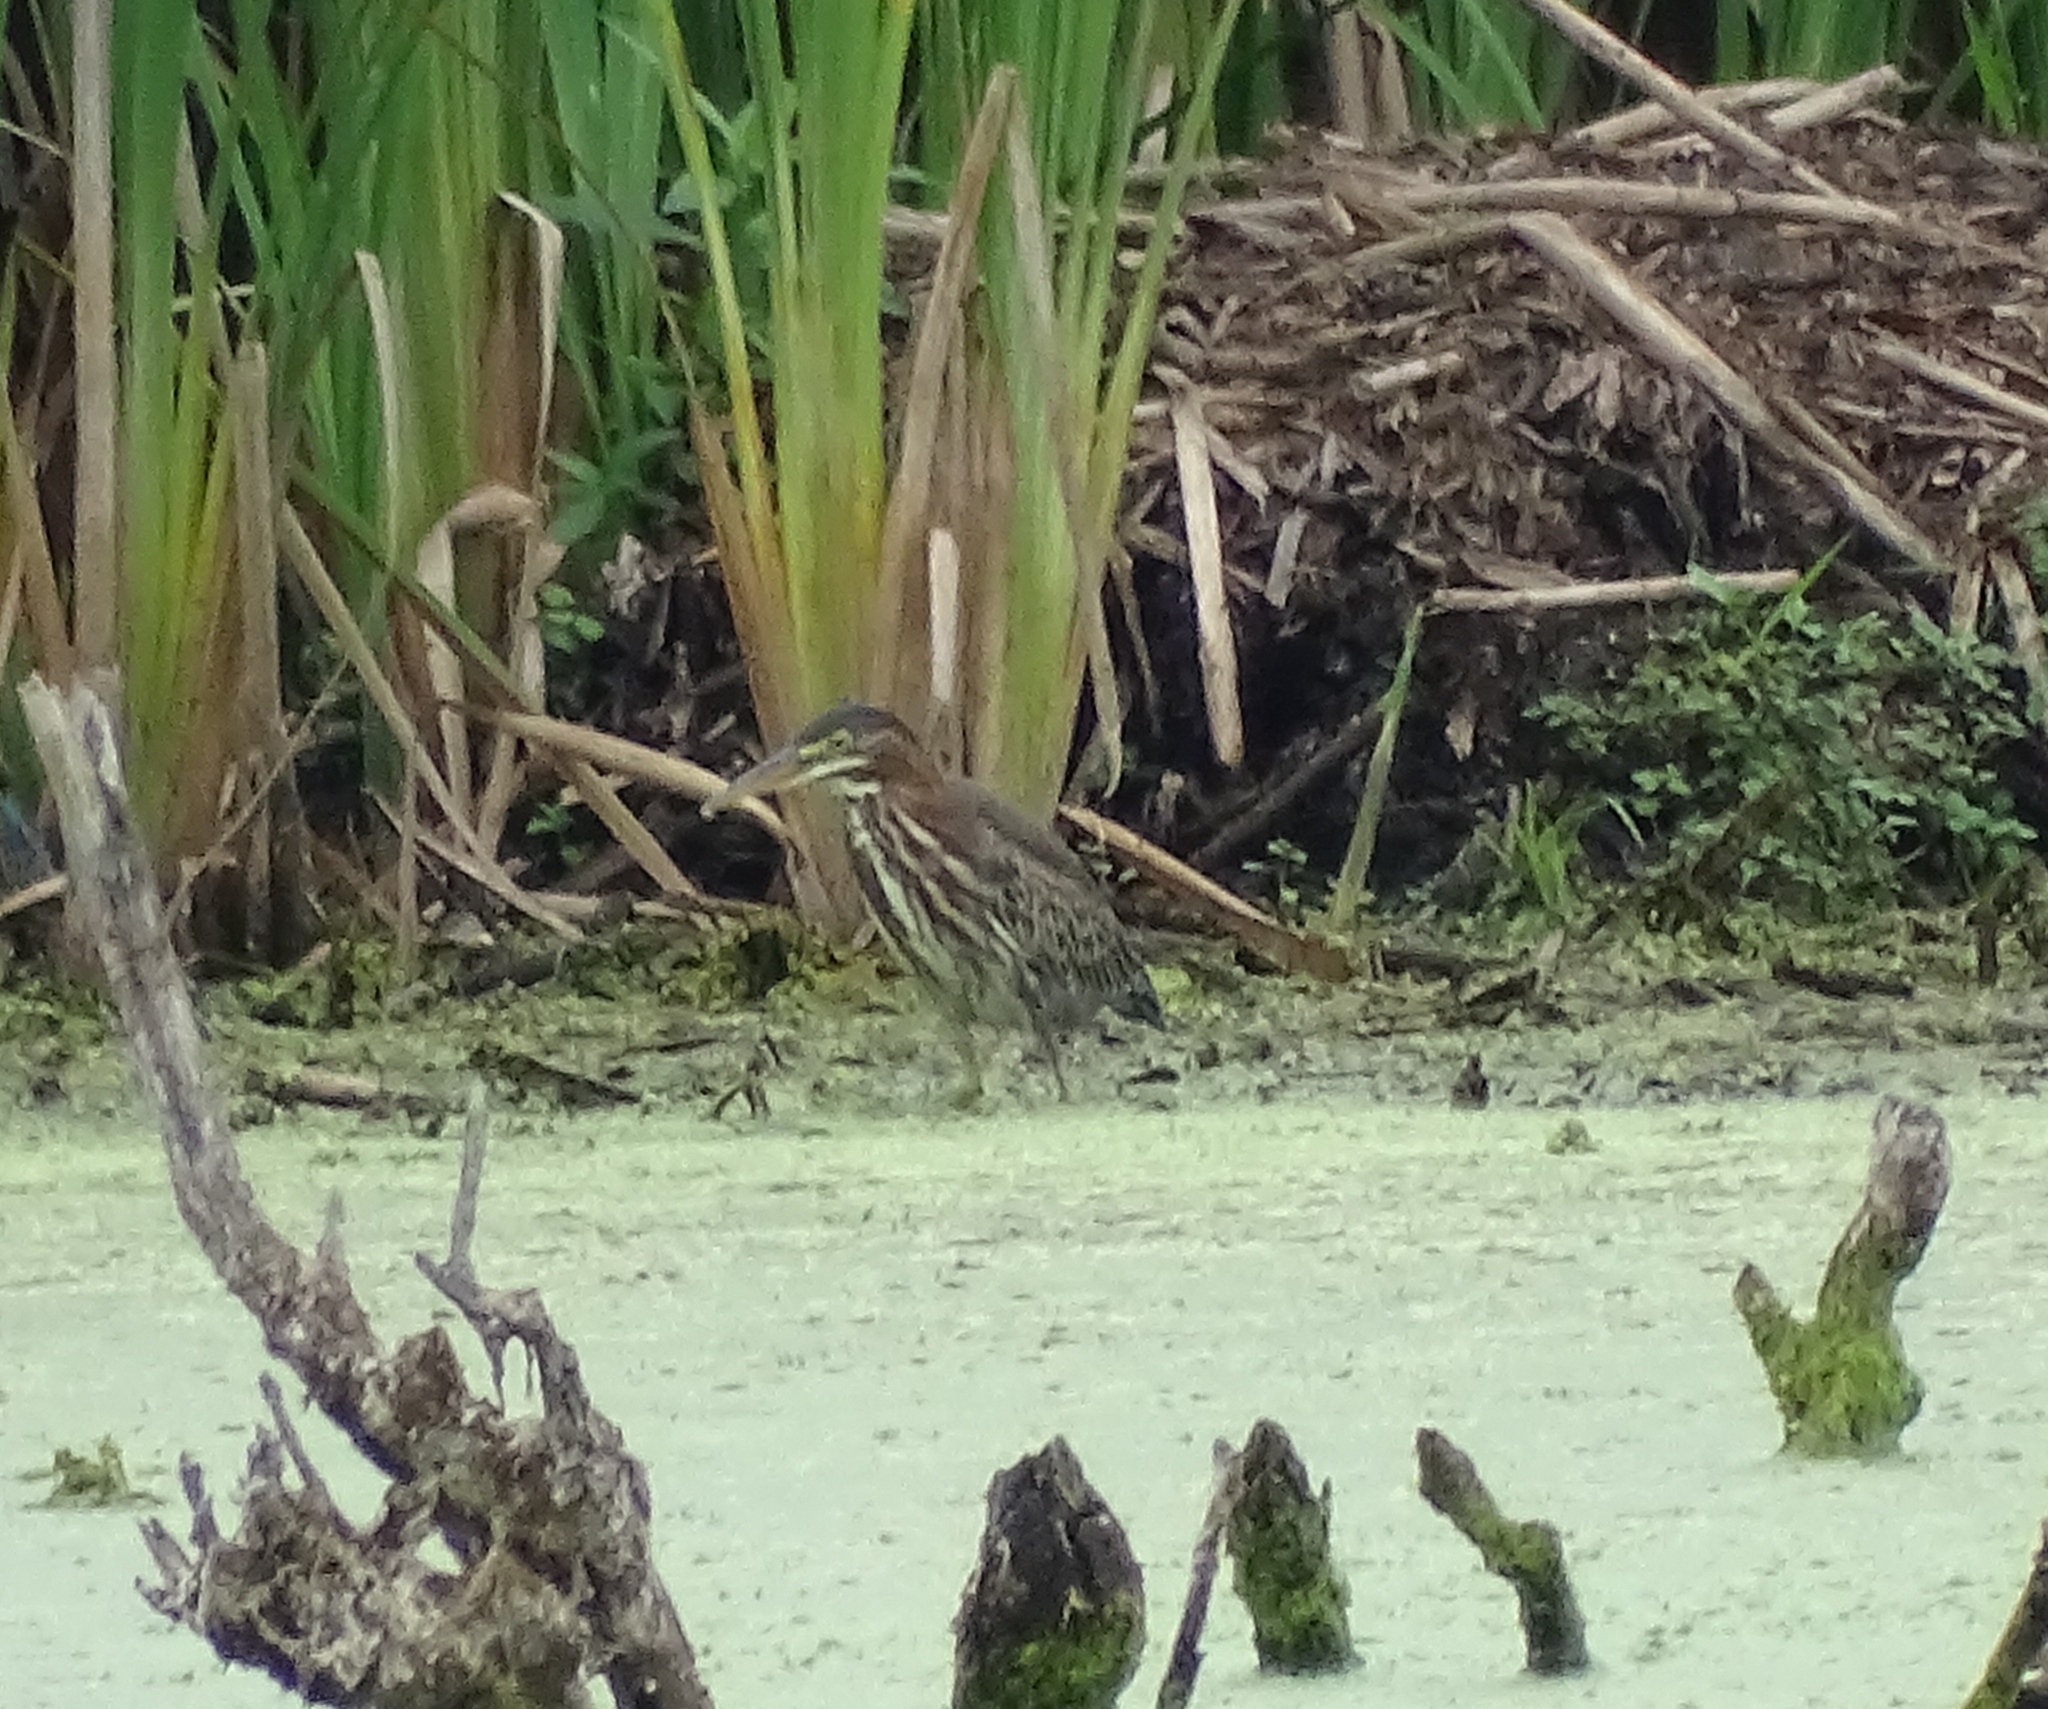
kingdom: Animalia
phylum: Chordata
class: Aves
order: Pelecaniformes
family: Ardeidae
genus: Butorides
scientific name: Butorides virescens
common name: Green heron
